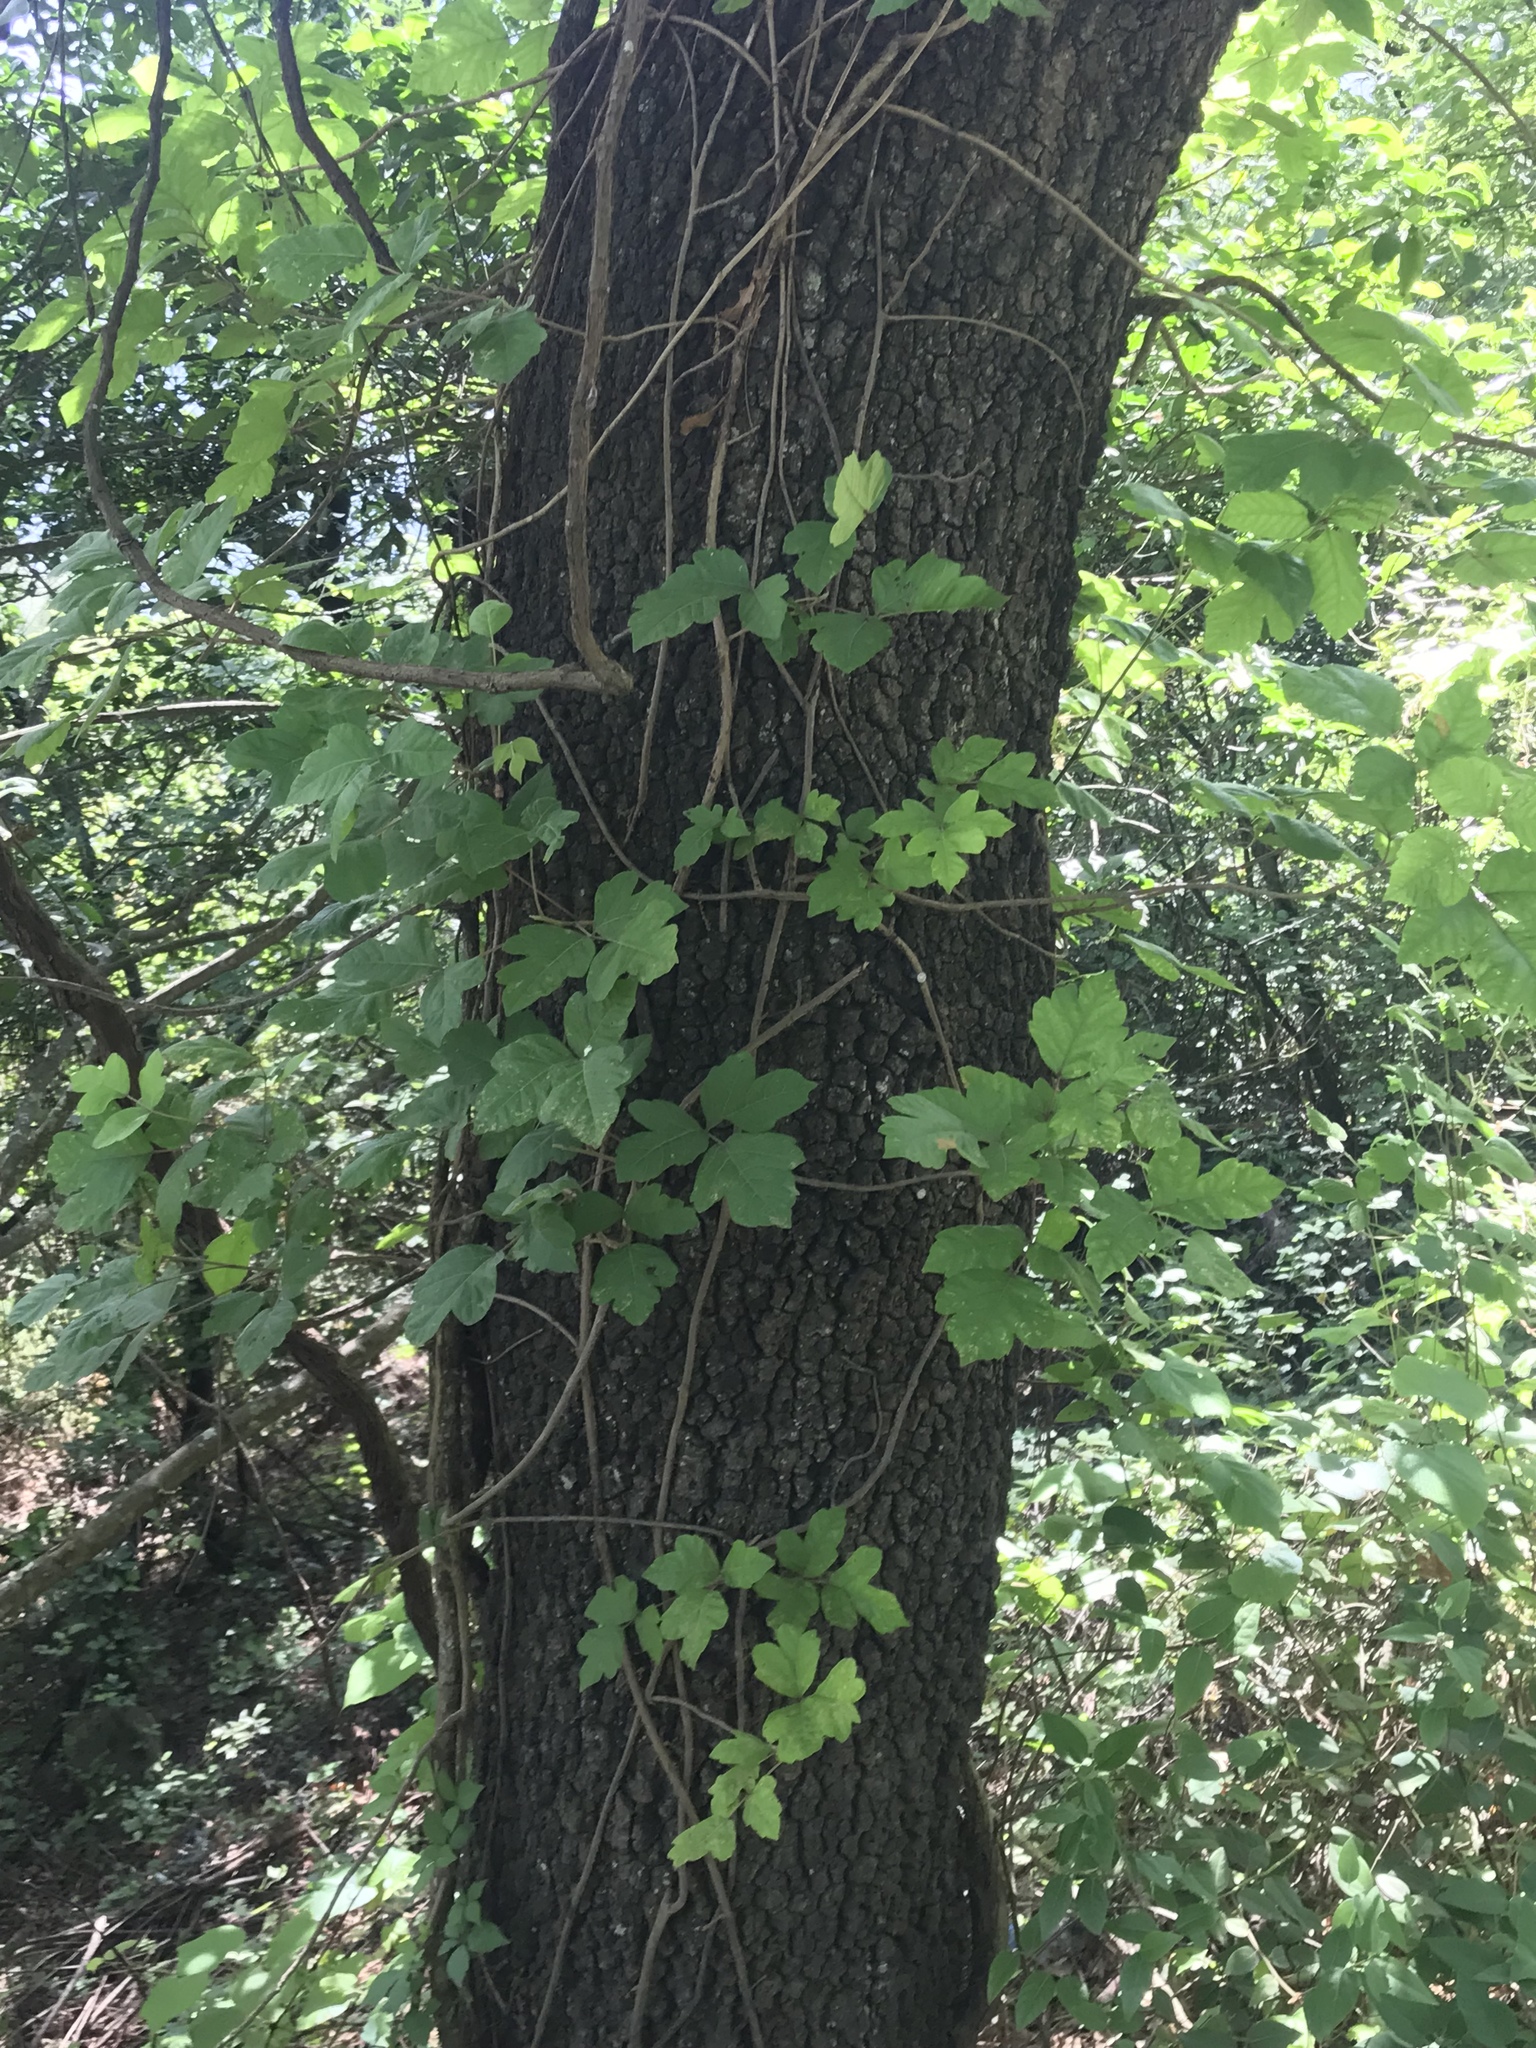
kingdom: Plantae
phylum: Tracheophyta
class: Magnoliopsida
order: Sapindales
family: Anacardiaceae
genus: Toxicodendron
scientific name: Toxicodendron radicans
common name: Poison ivy
